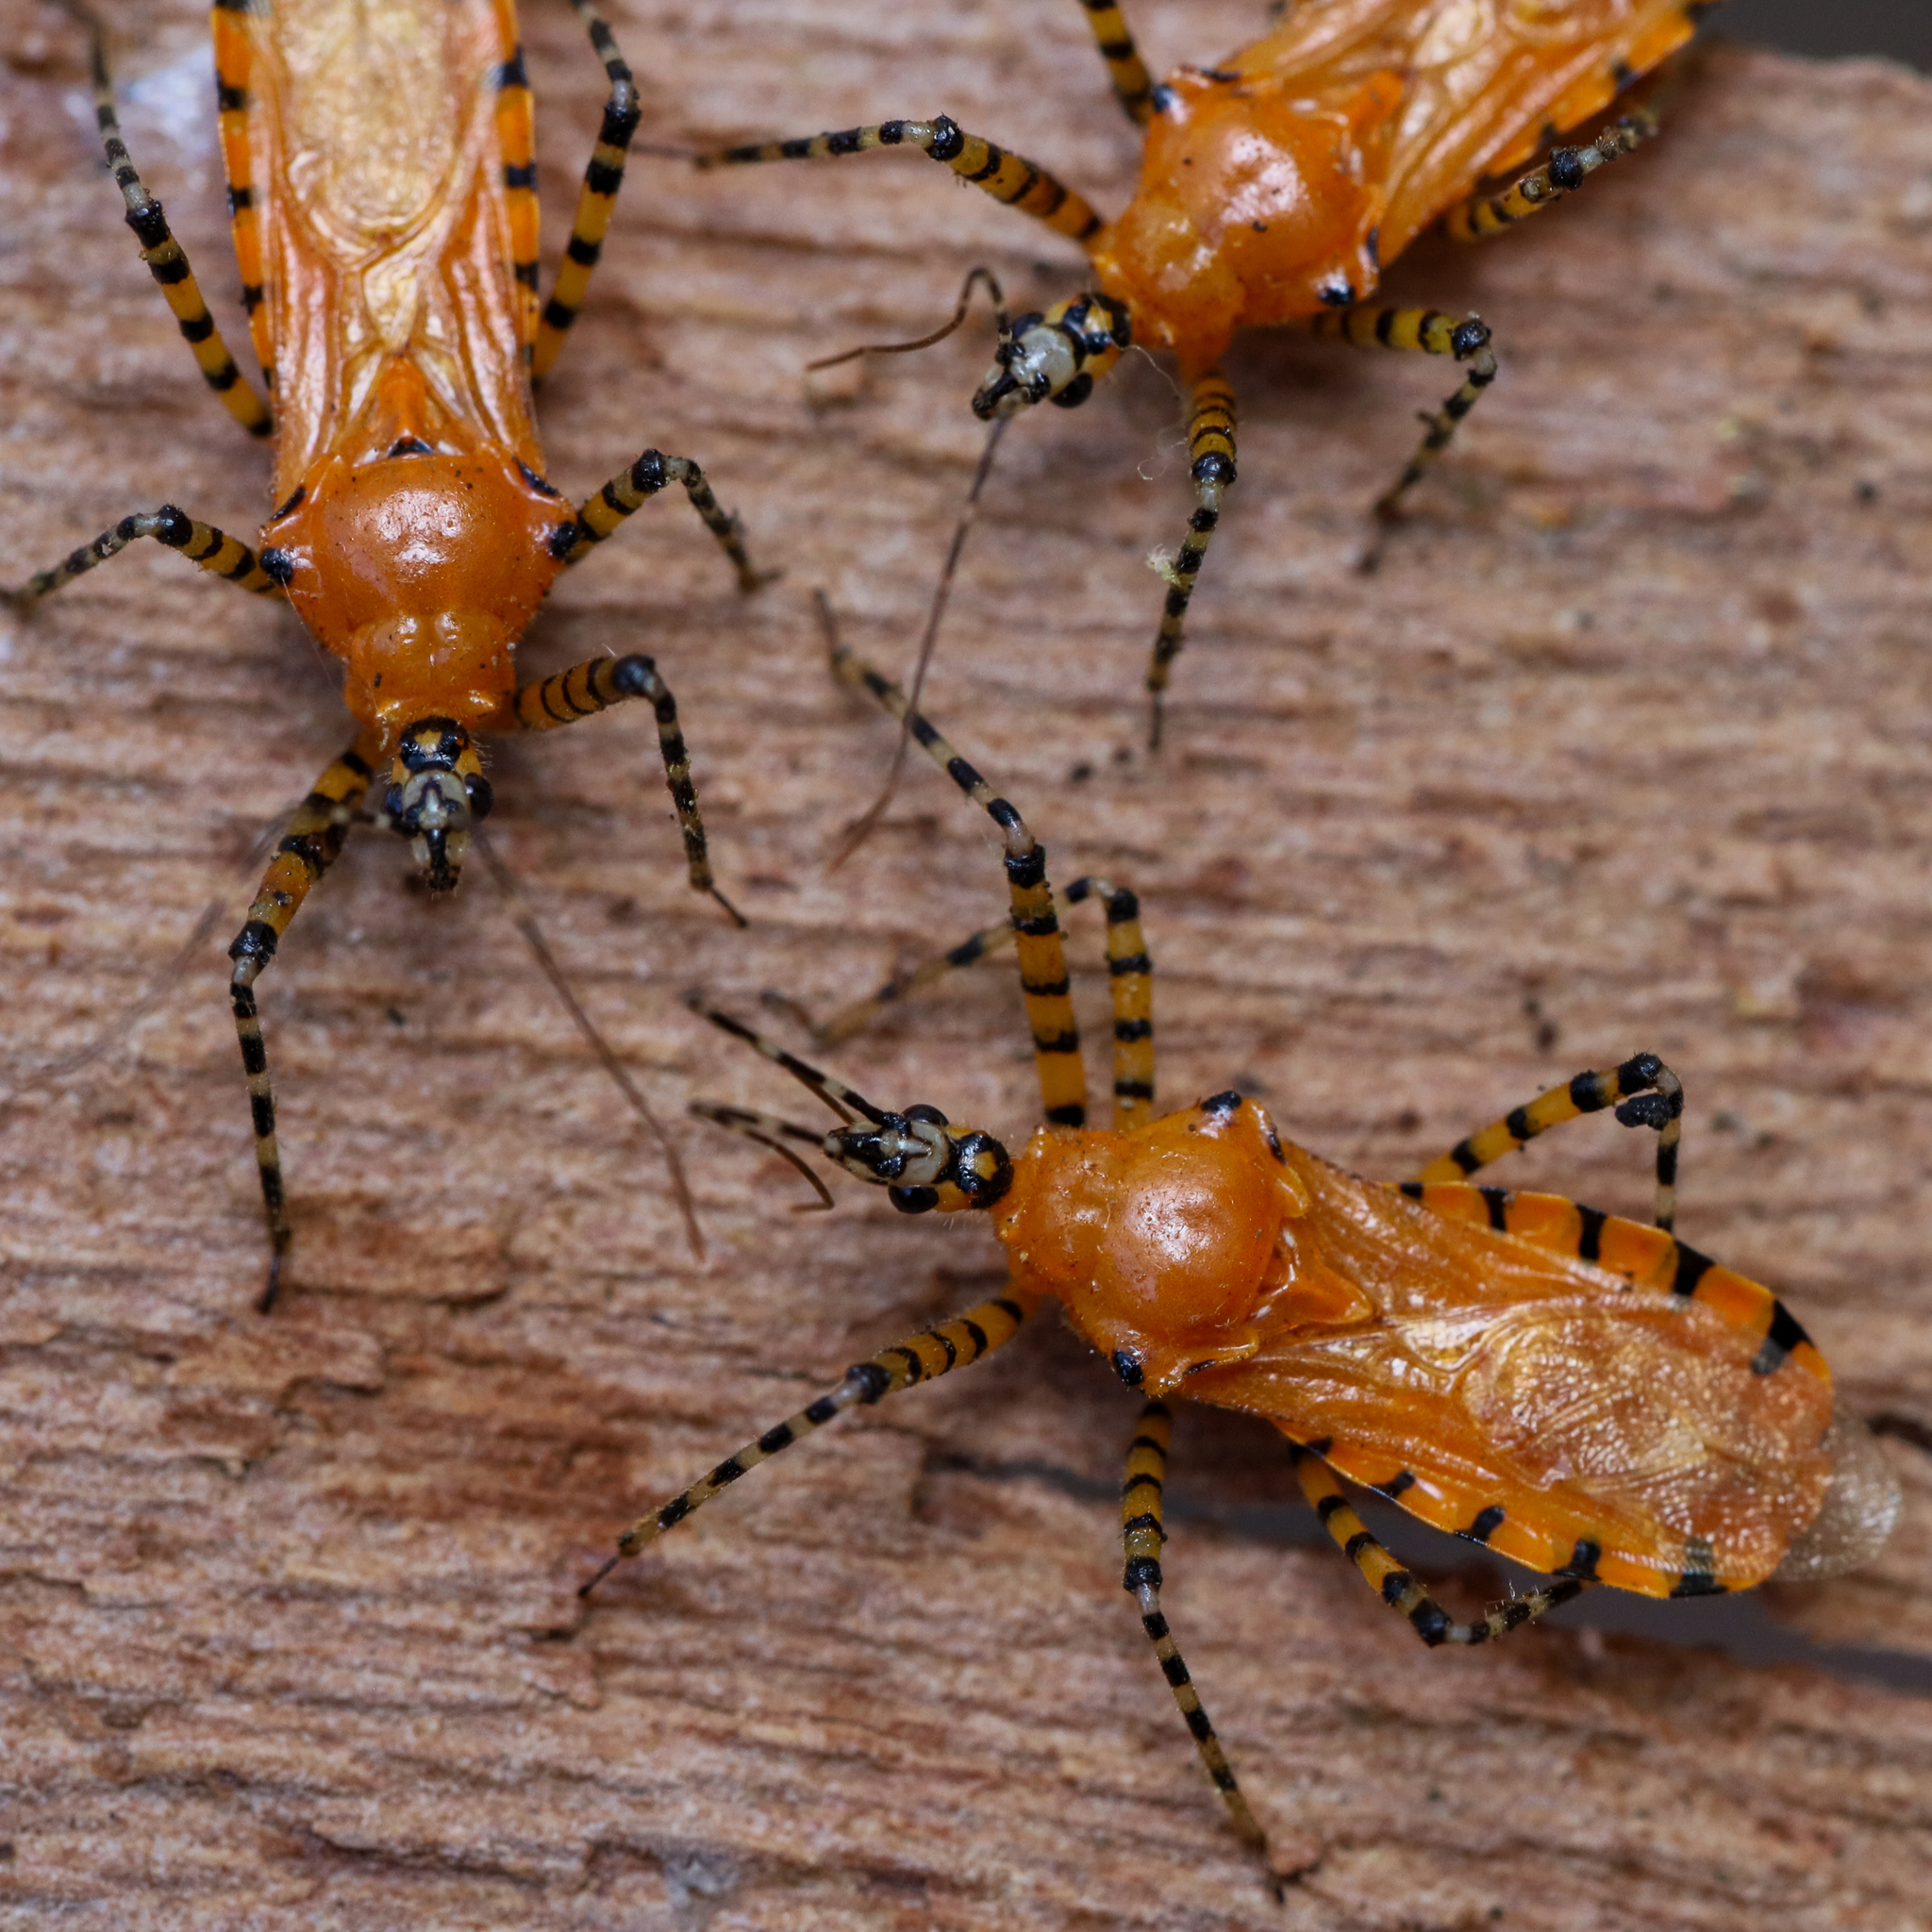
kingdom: Animalia
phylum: Arthropoda
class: Insecta
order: Hemiptera
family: Reduviidae
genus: Pselliopus
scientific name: Pselliopus barberi
